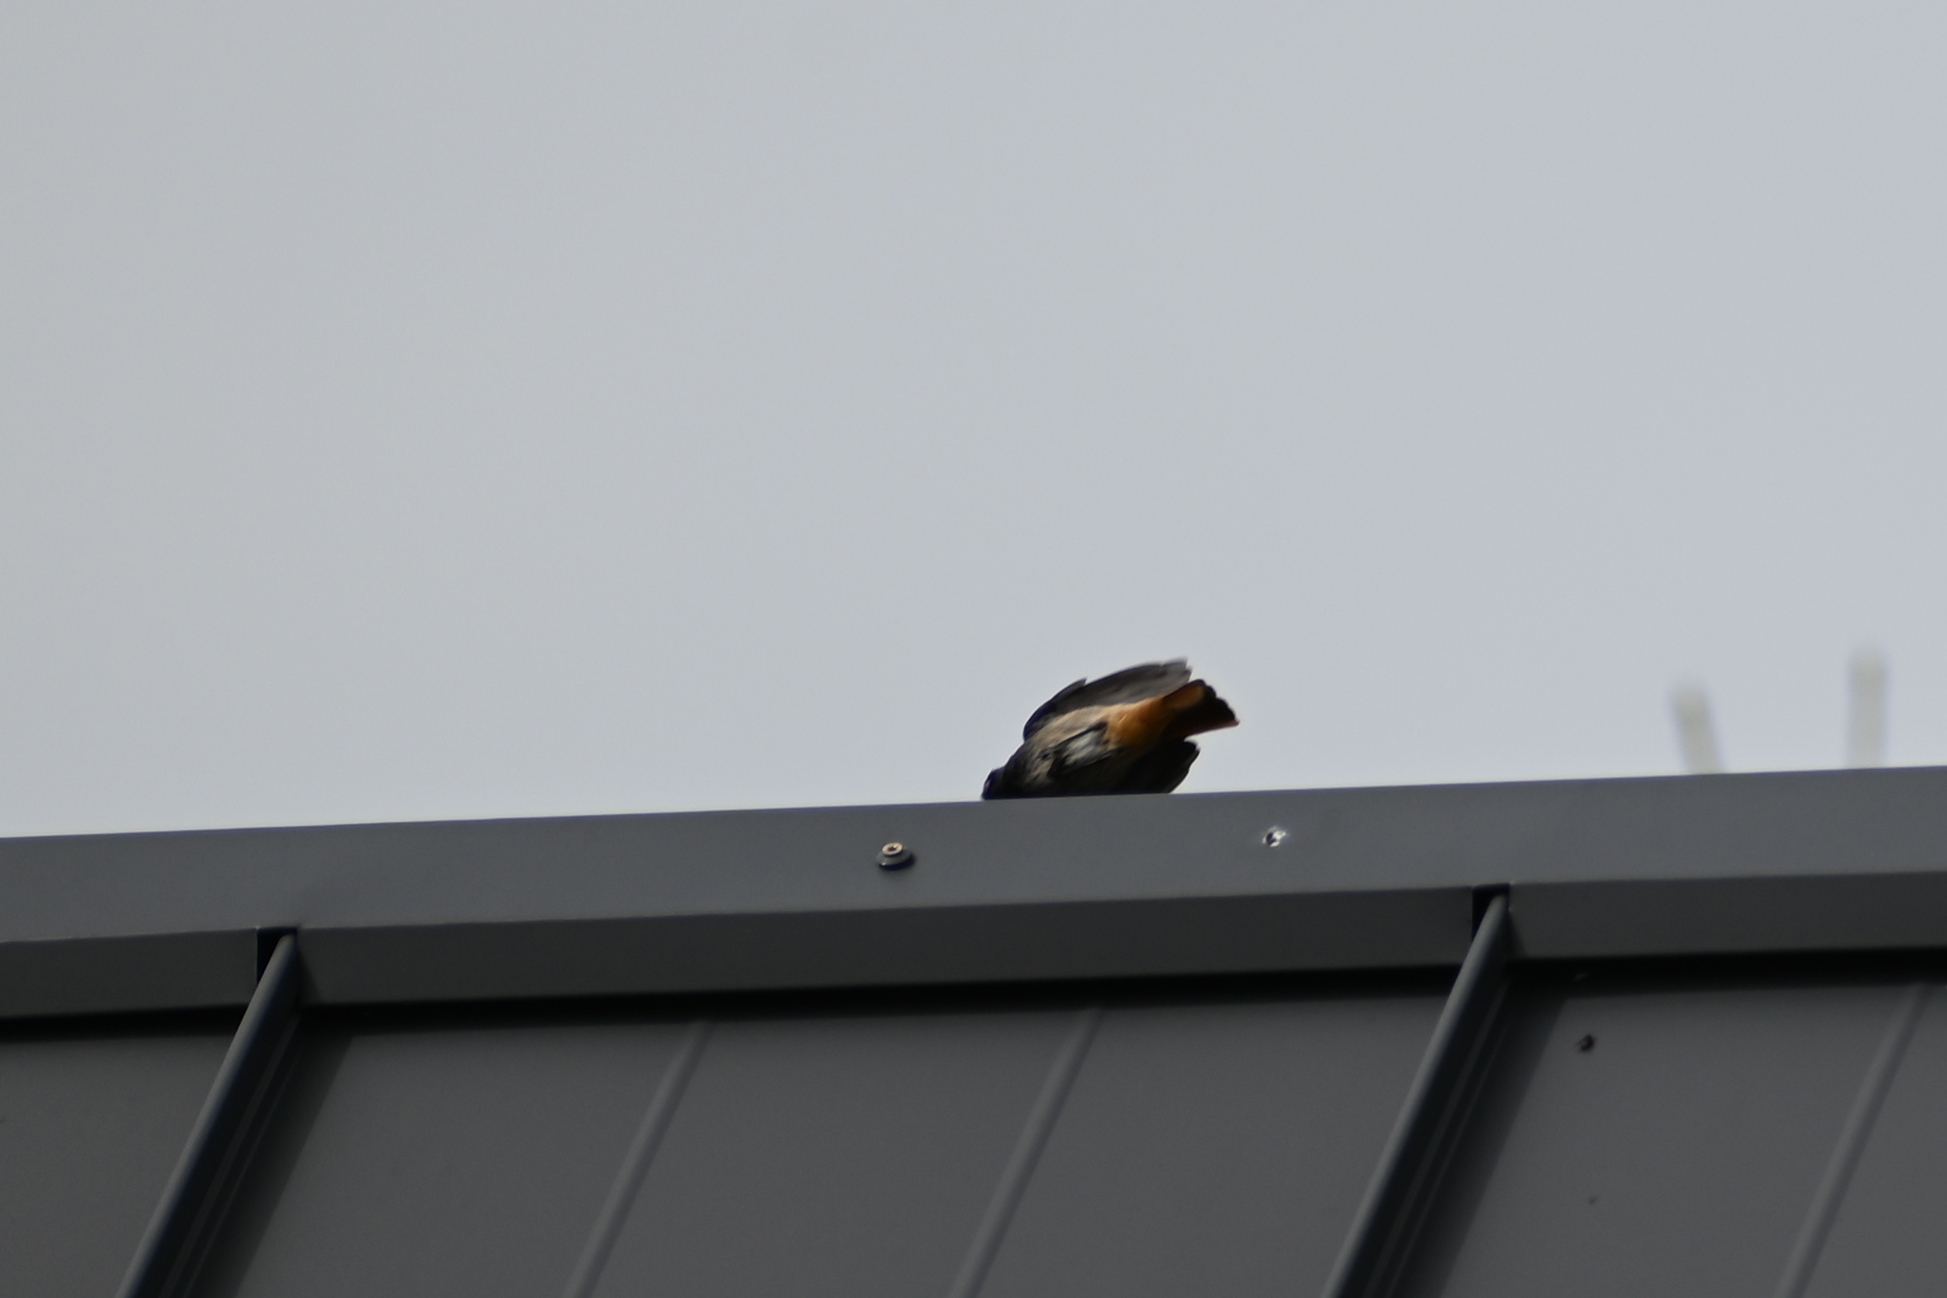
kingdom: Animalia
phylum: Chordata
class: Aves
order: Passeriformes
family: Muscicapidae
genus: Phoenicurus
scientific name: Phoenicurus ochruros
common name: Black redstart
